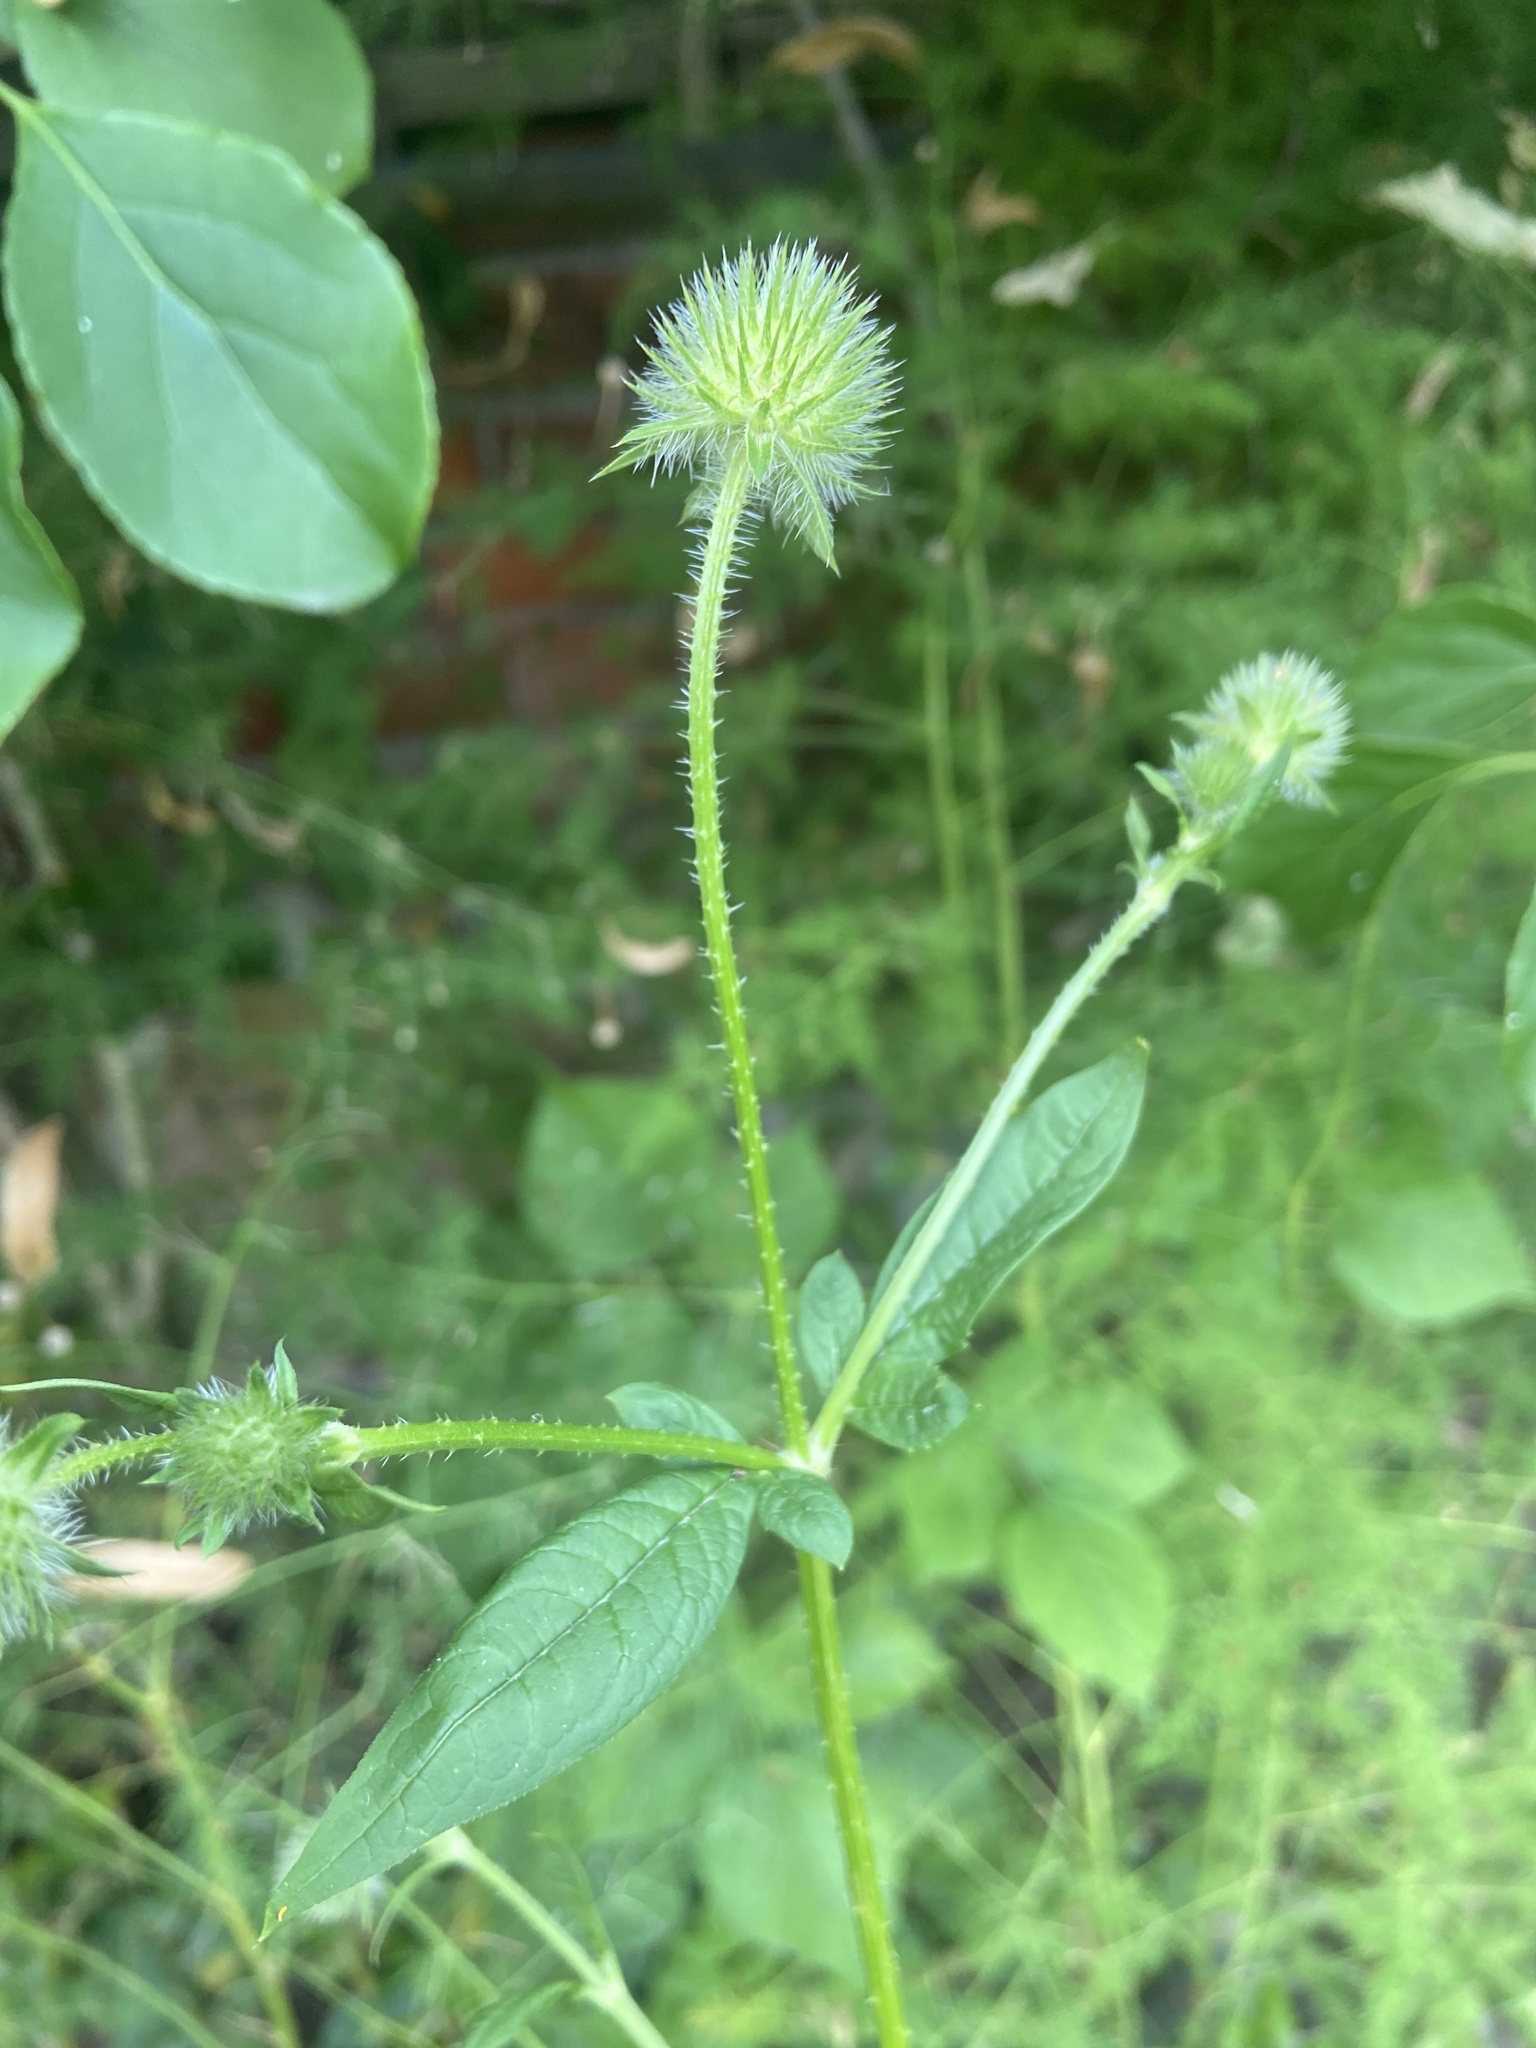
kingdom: Plantae
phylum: Tracheophyta
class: Magnoliopsida
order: Dipsacales
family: Caprifoliaceae
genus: Dipsacus
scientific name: Dipsacus pilosus
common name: Small teasel
